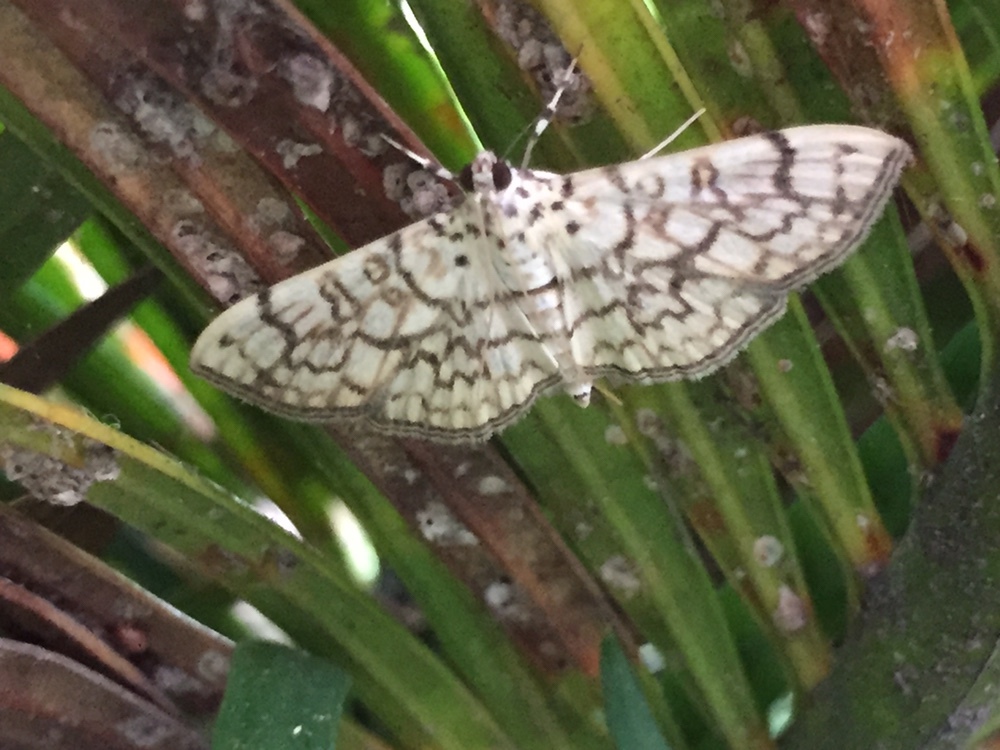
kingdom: Animalia
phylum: Arthropoda
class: Insecta
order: Lepidoptera
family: Crambidae
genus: Haritalodes
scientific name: Haritalodes derogata
